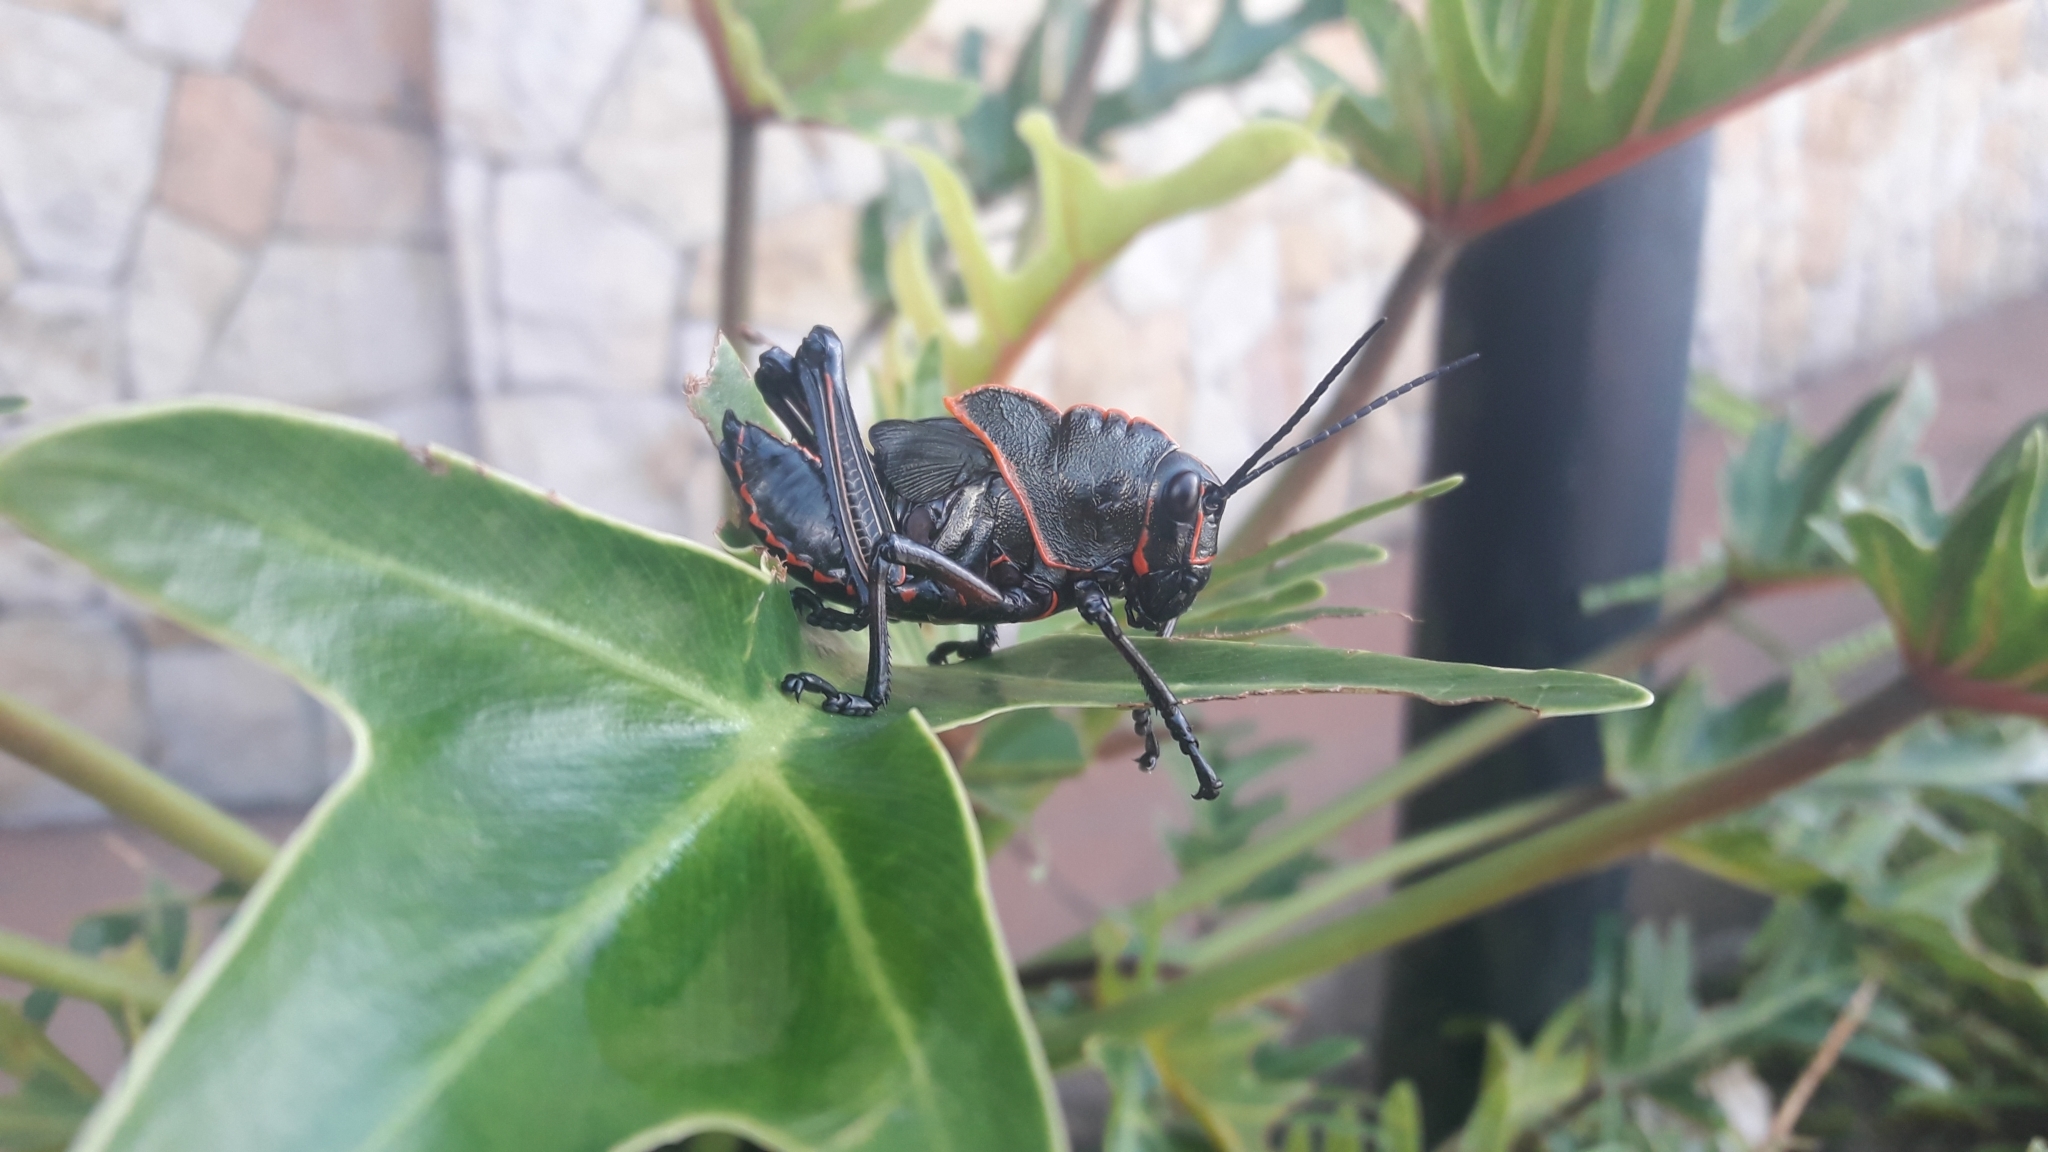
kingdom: Animalia
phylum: Arthropoda
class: Insecta
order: Orthoptera
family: Romaleidae
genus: Romalea
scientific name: Romalea
